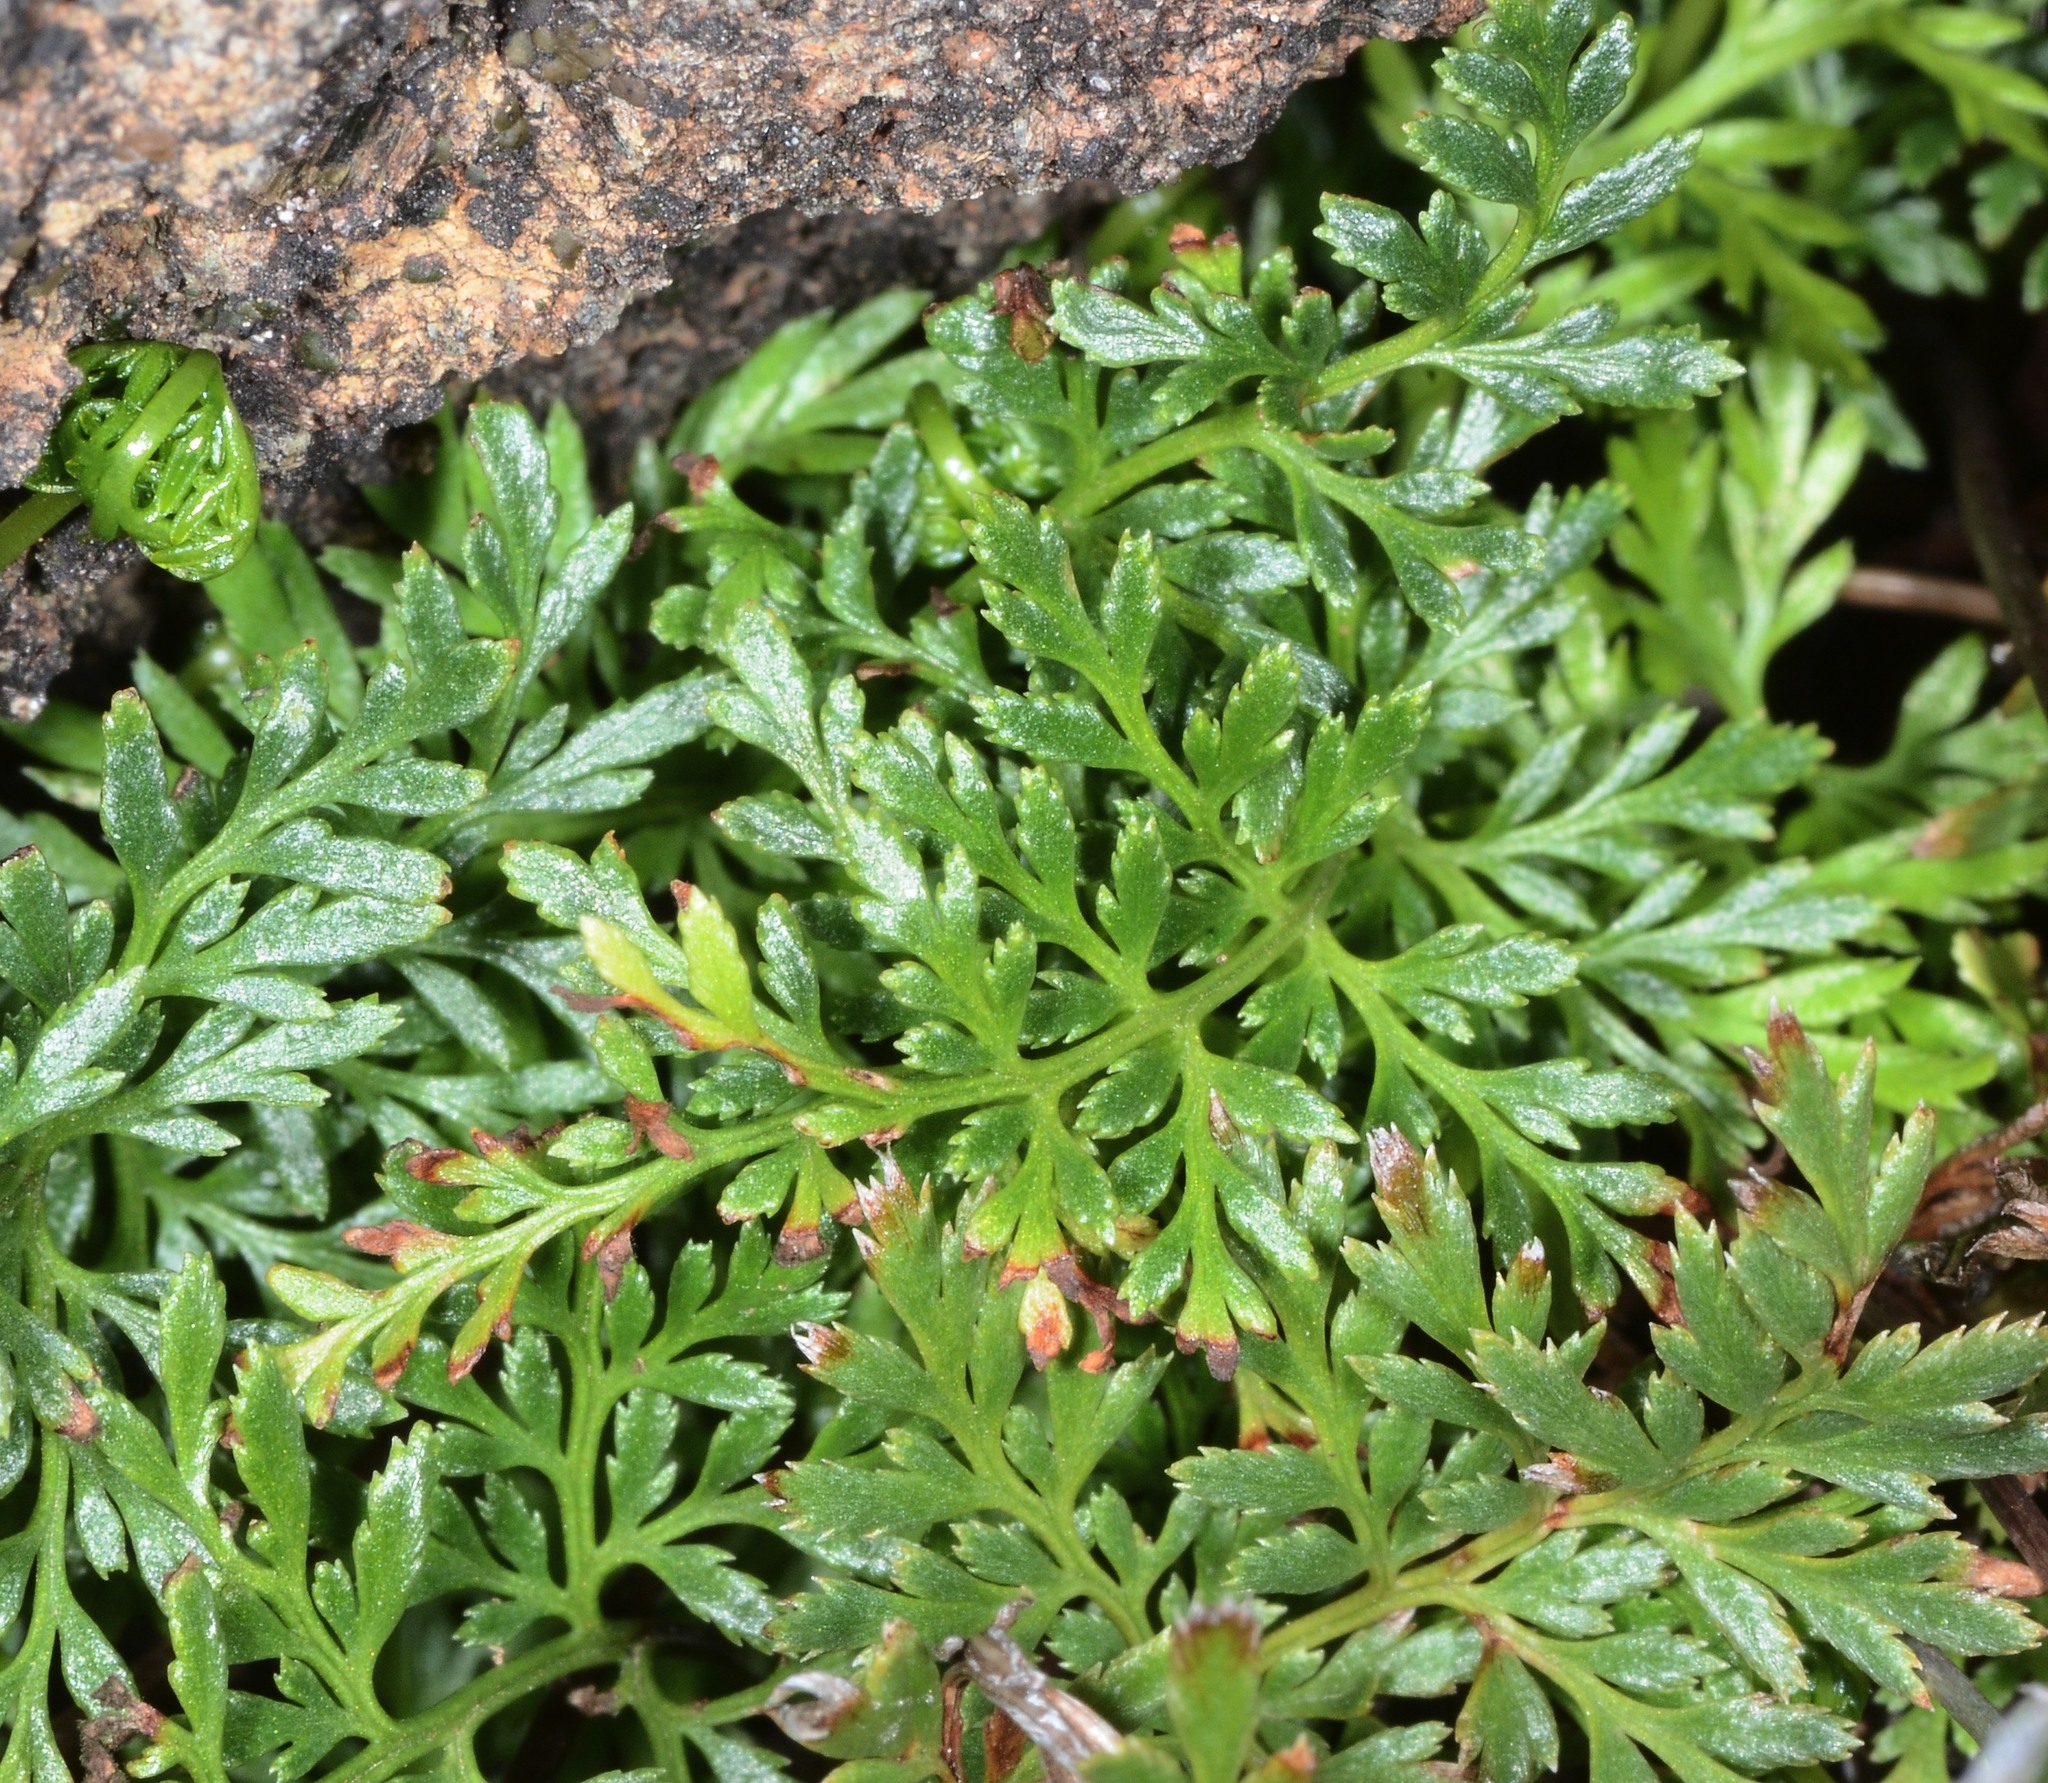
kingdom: Plantae
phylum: Tracheophyta
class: Polypodiopsida
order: Polypodiales
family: Pteridaceae
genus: Aspidotis
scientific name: Aspidotis densa
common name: Indian's dream
